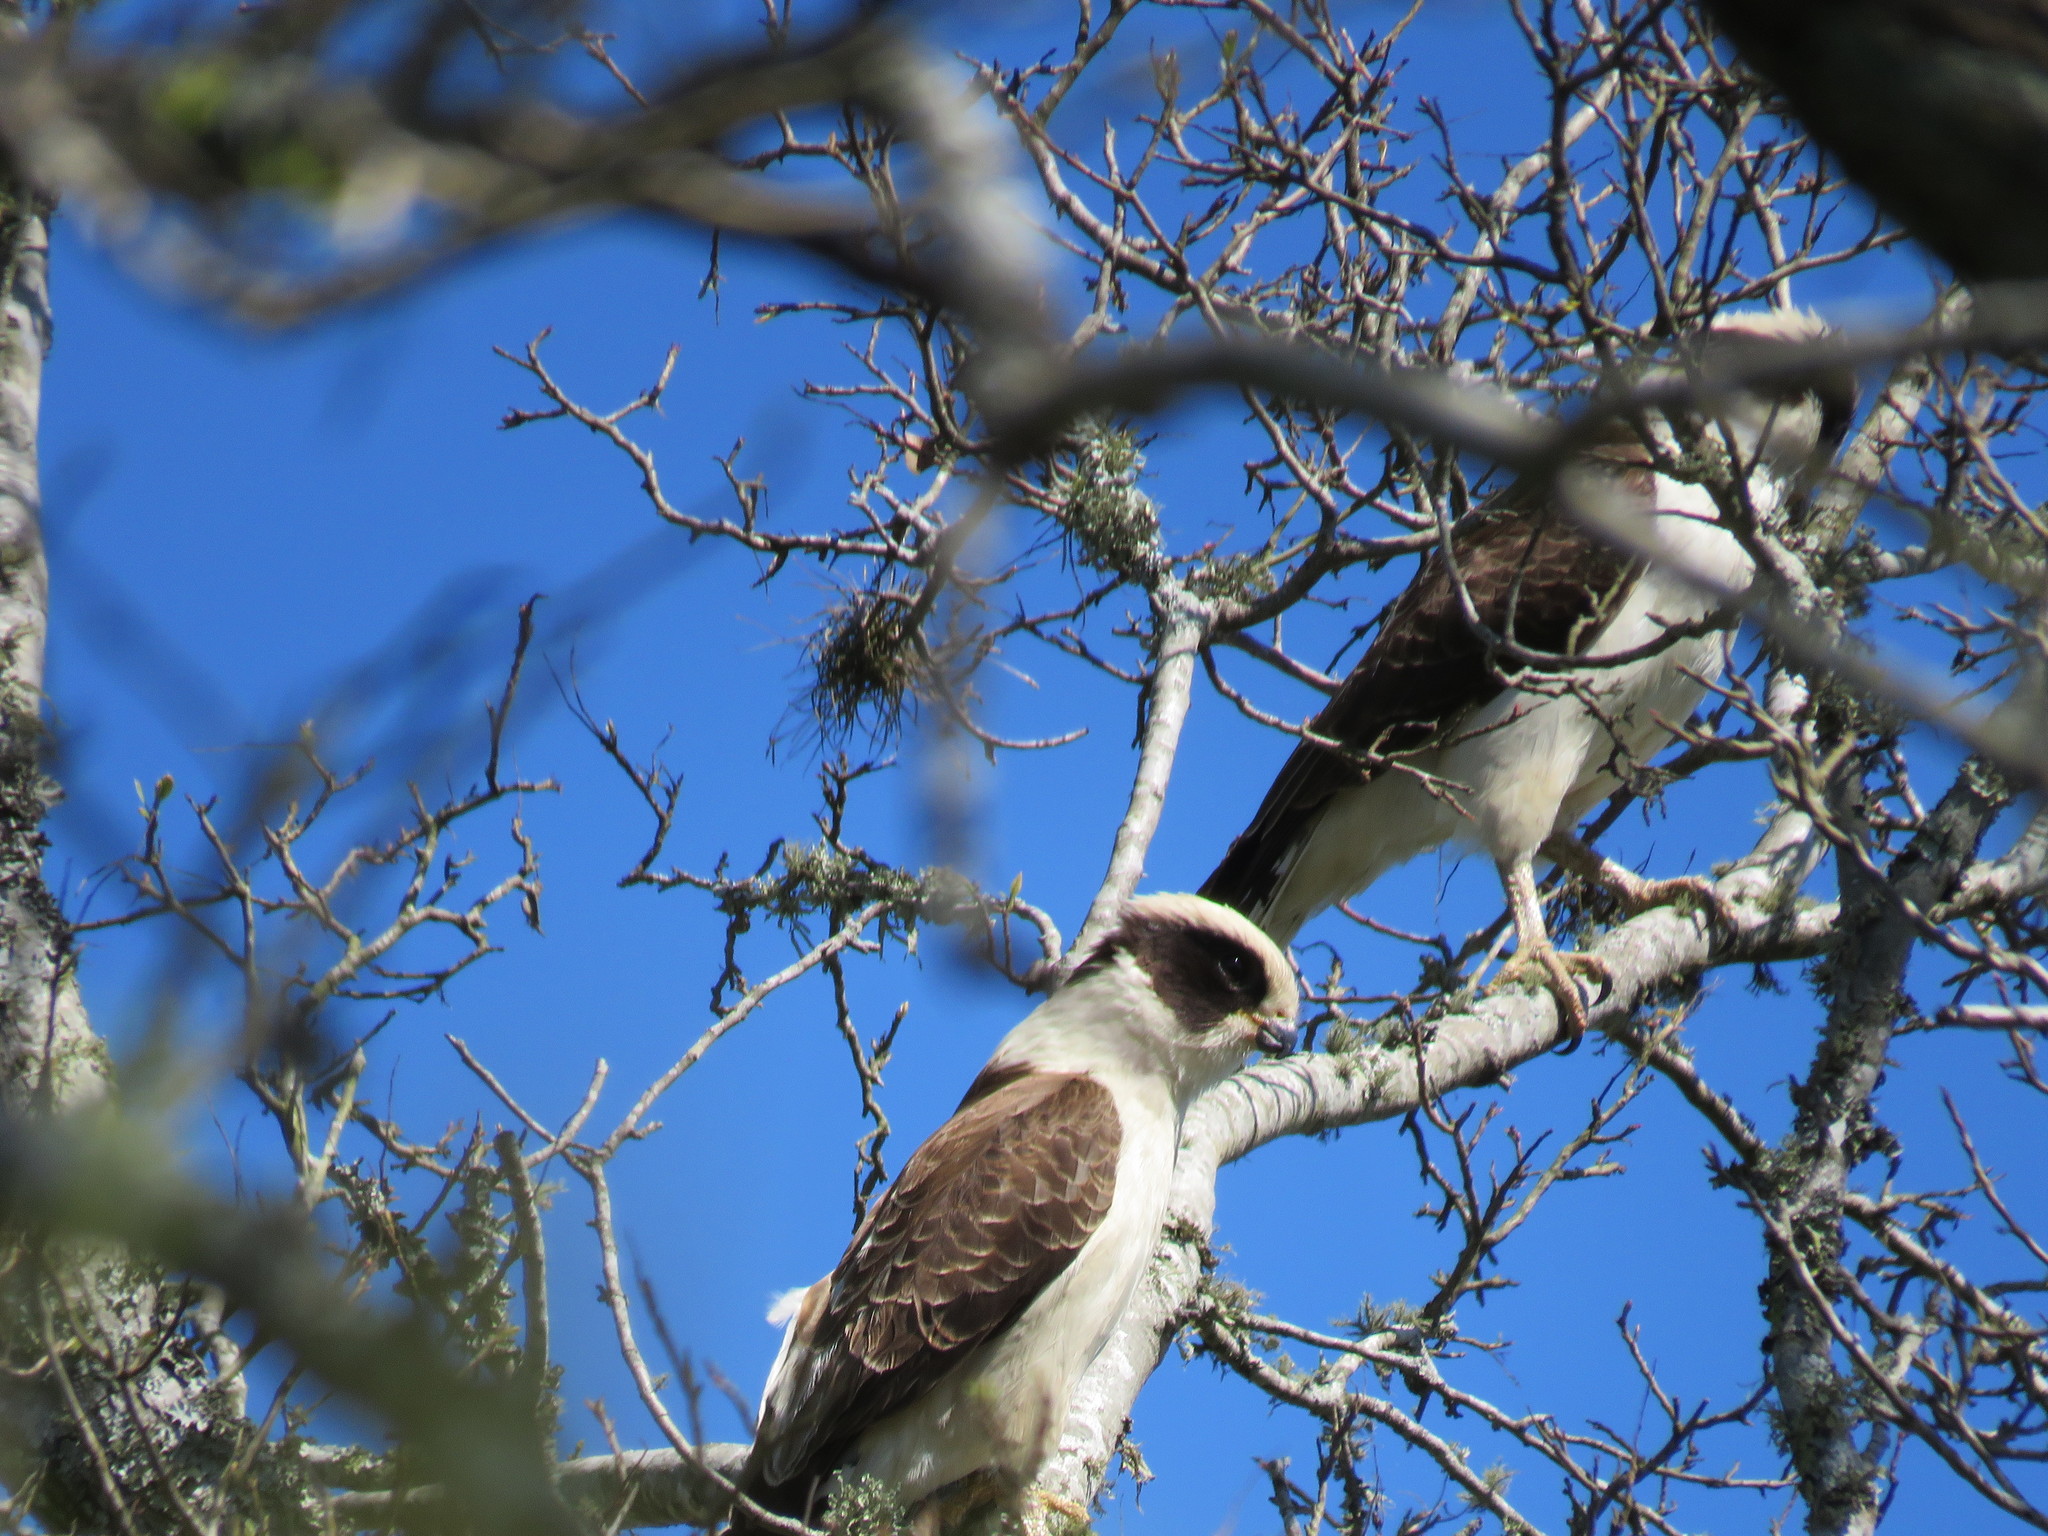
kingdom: Animalia
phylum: Chordata
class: Aves
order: Falconiformes
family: Falconidae
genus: Herpetotheres
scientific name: Herpetotheres cachinnans
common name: Laughing falcon
